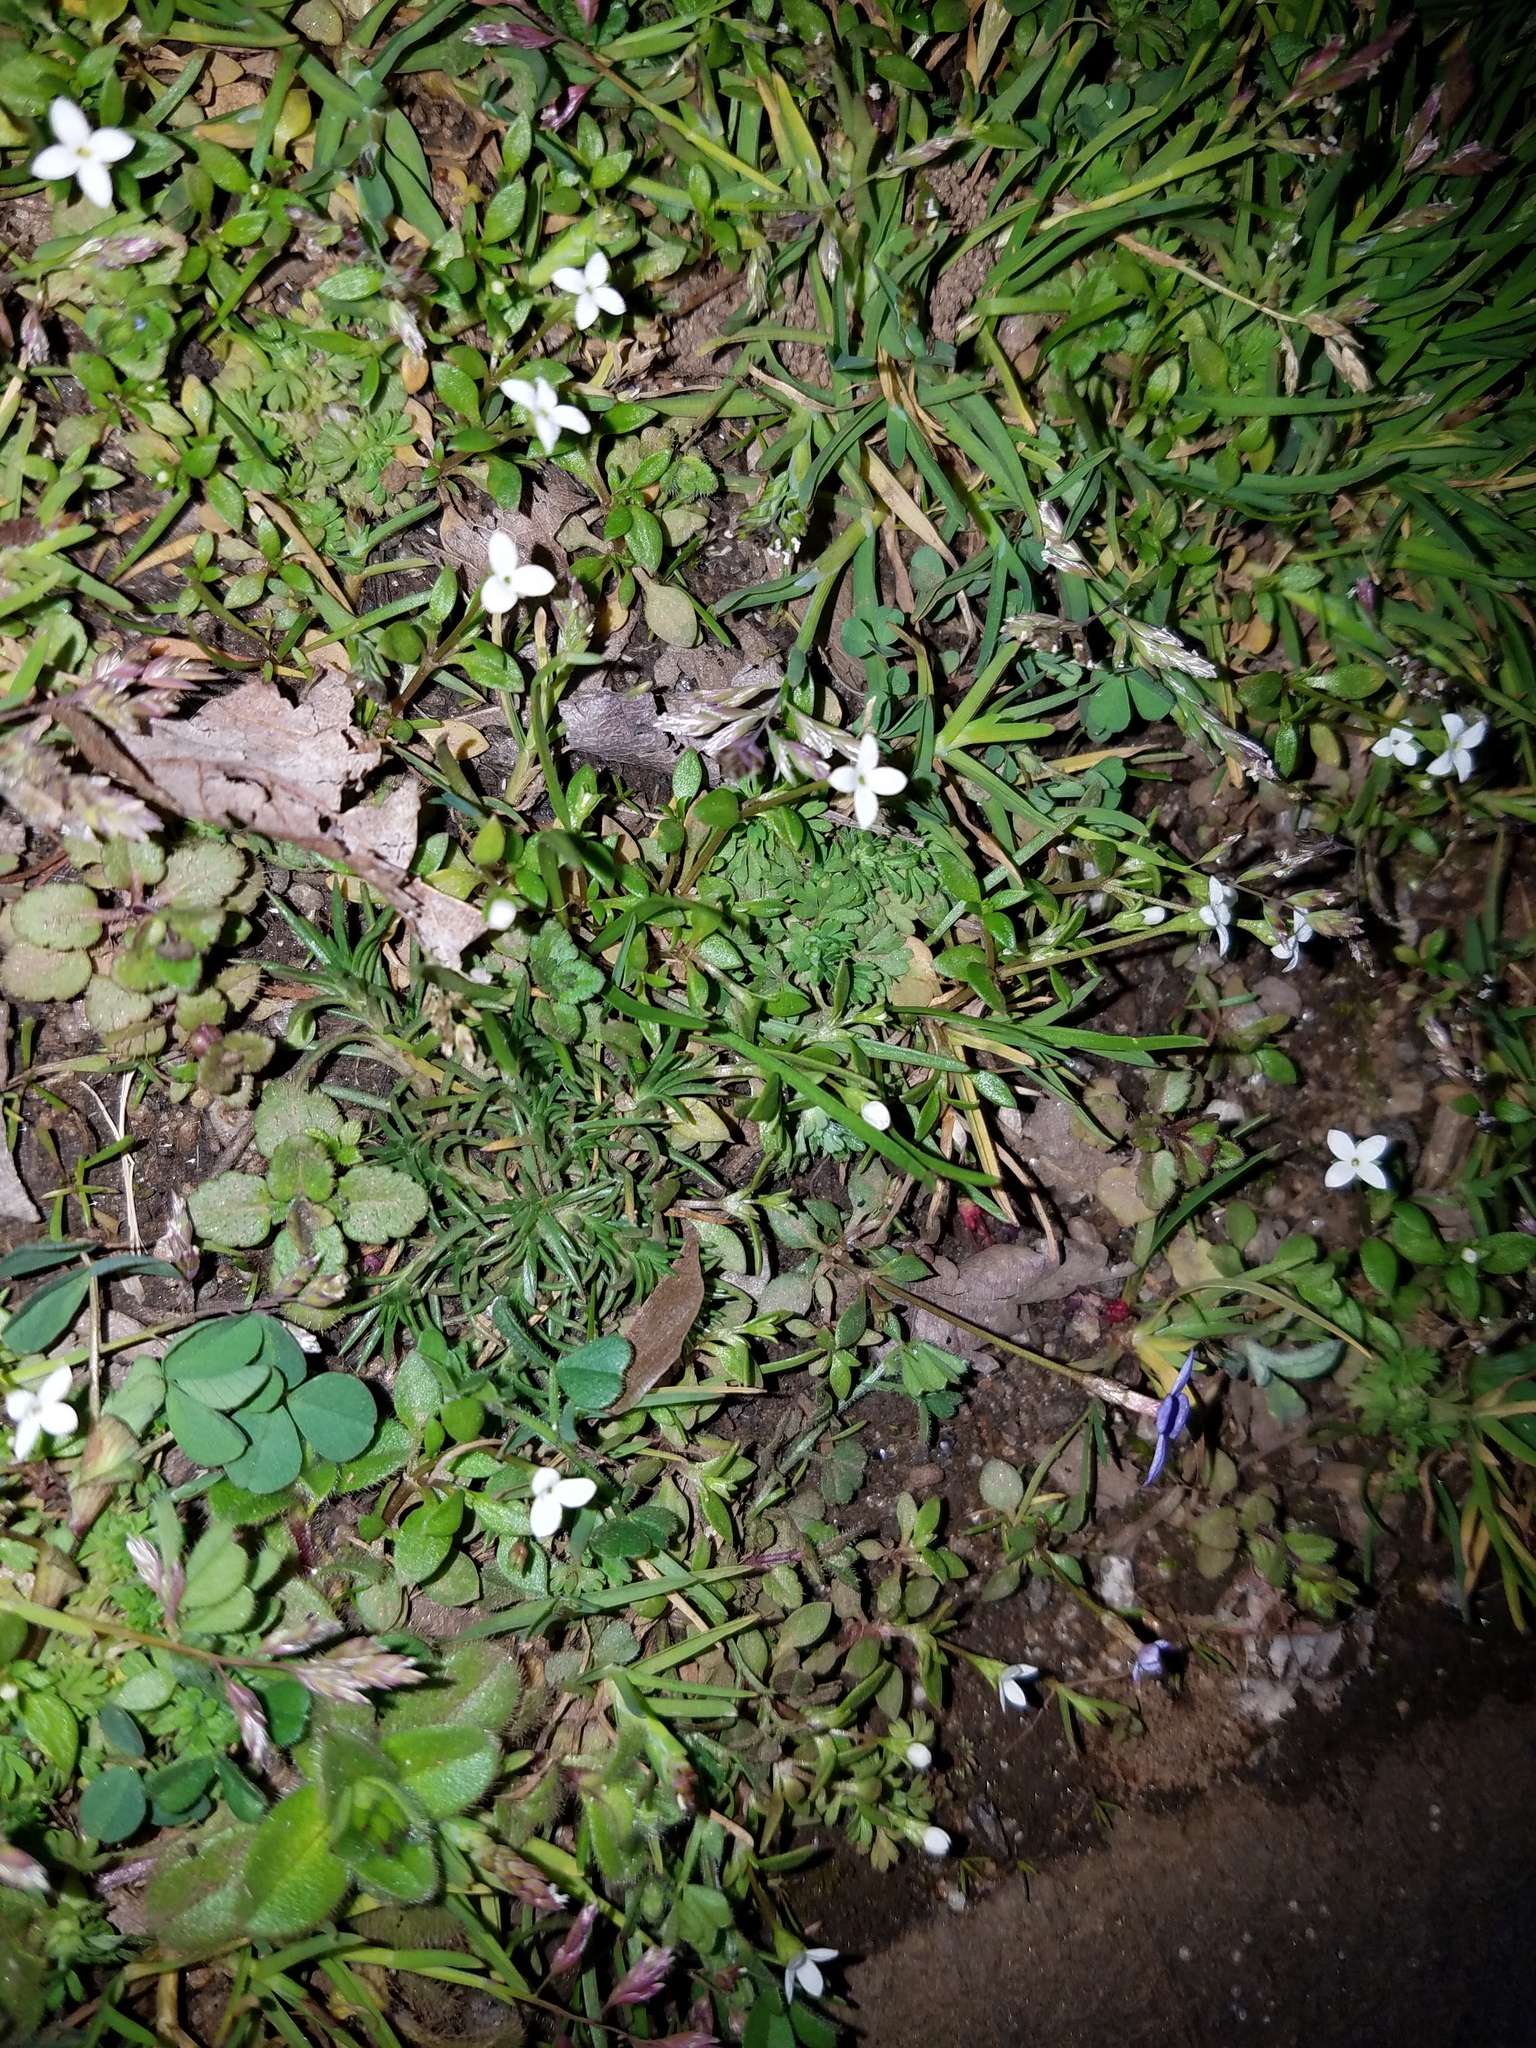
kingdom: Plantae
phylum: Tracheophyta
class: Magnoliopsida
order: Gentianales
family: Rubiaceae
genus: Houstonia
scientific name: Houstonia micrantha
